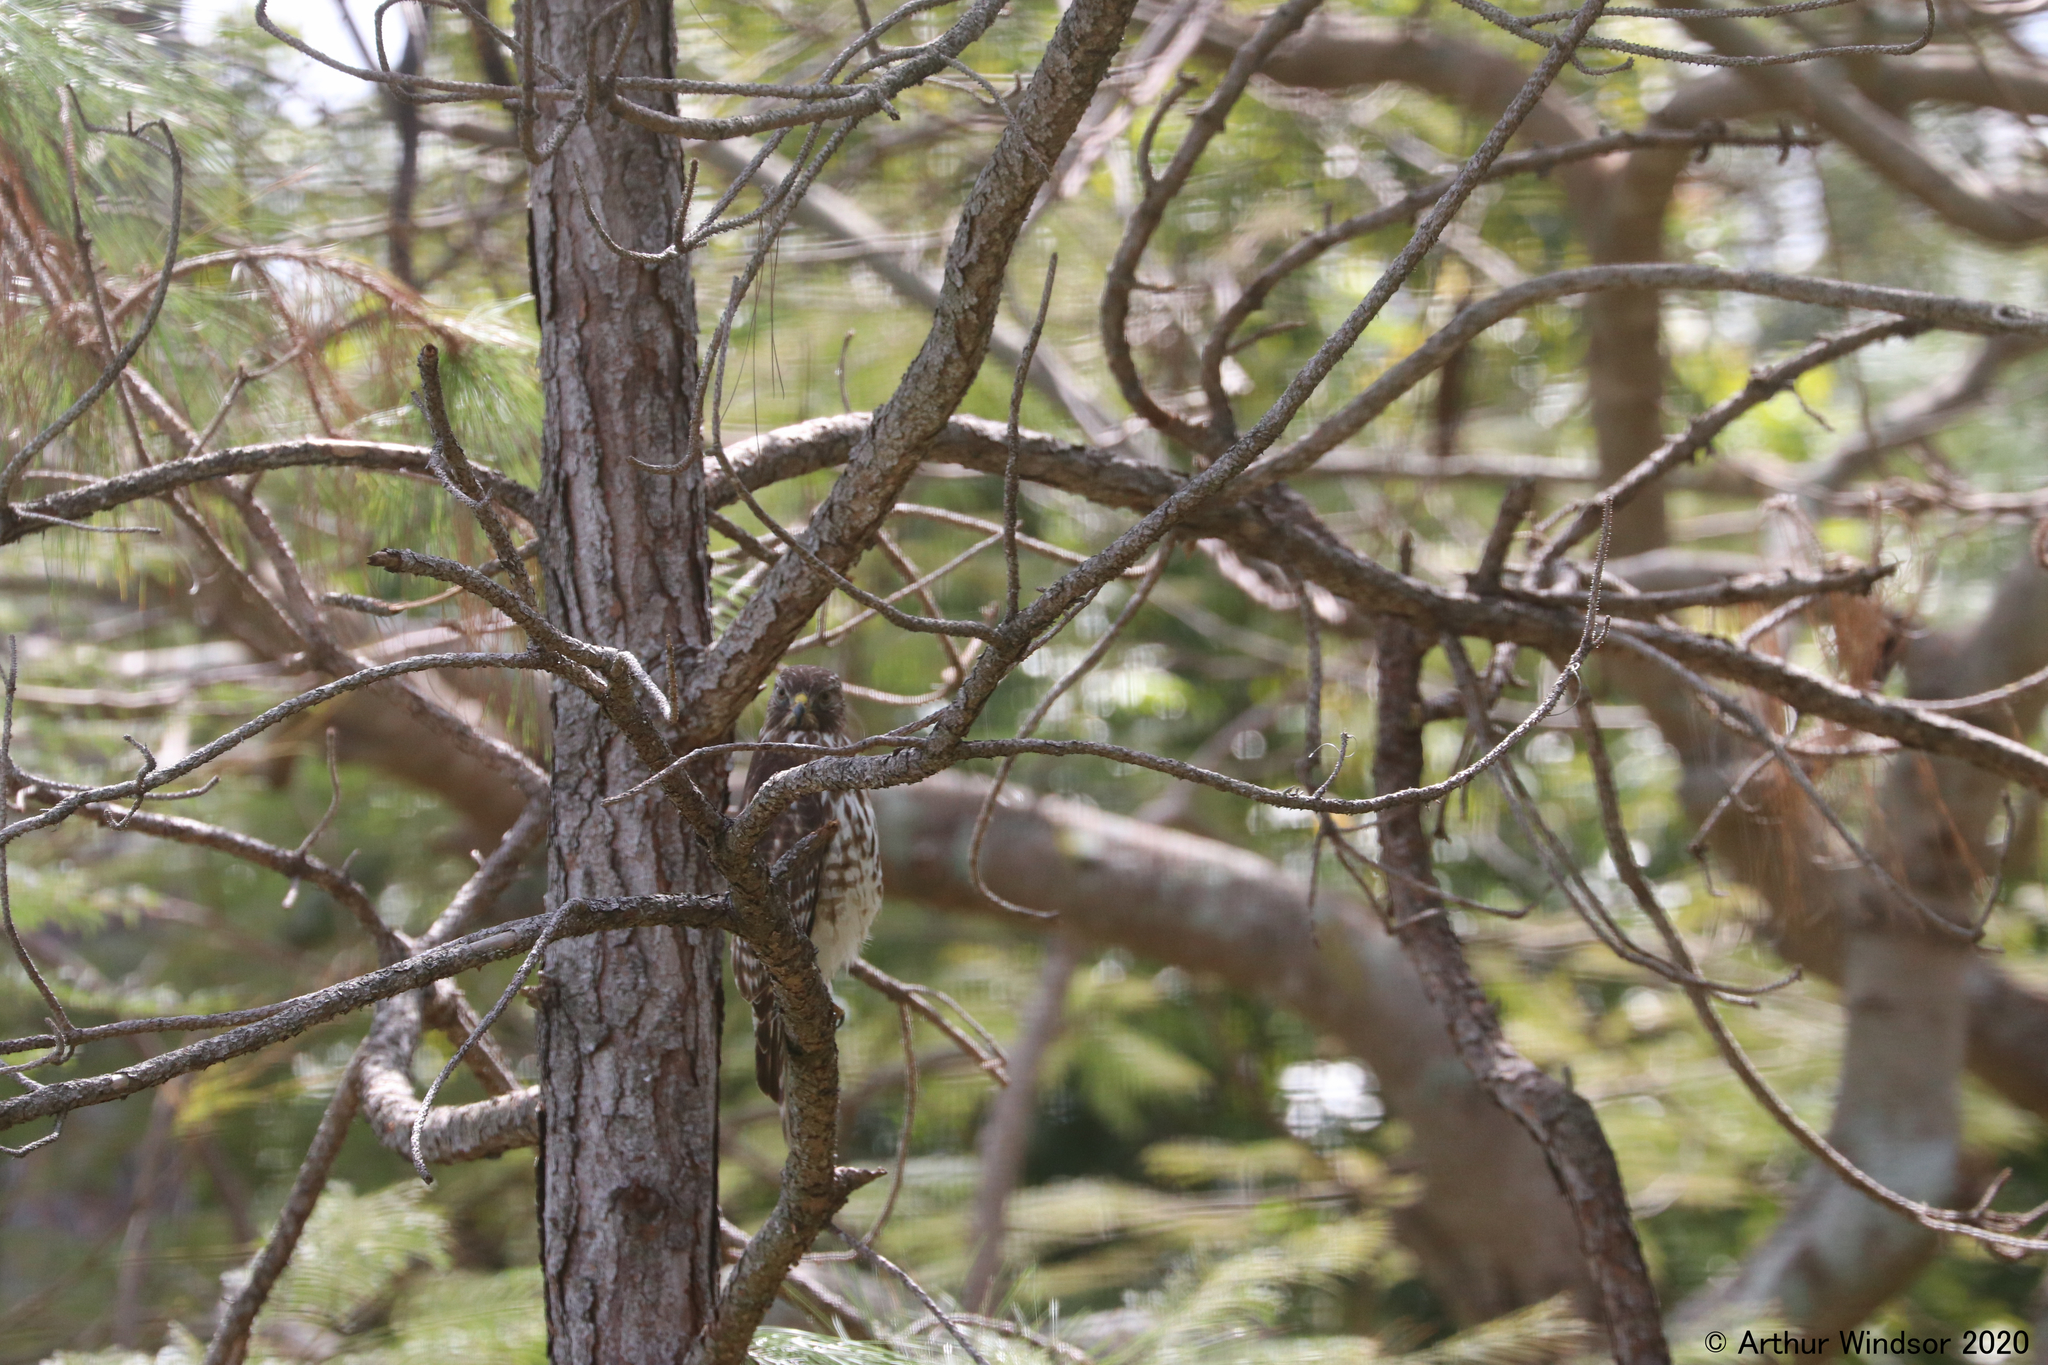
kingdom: Animalia
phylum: Chordata
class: Aves
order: Accipitriformes
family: Accipitridae
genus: Buteo
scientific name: Buteo lineatus
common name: Red-shouldered hawk
